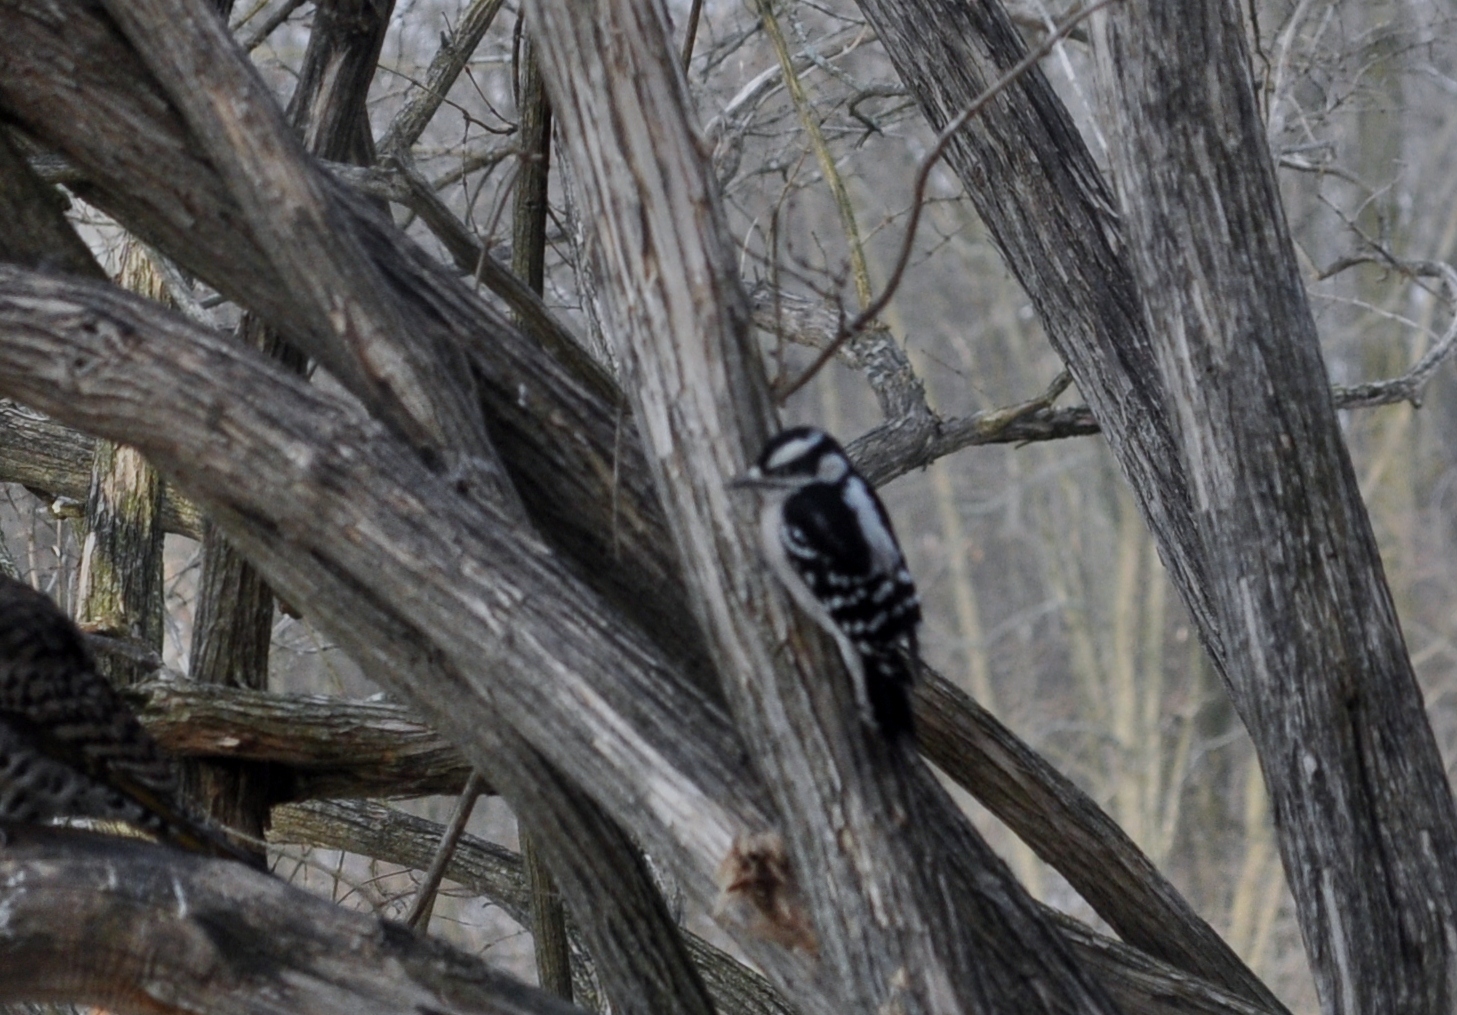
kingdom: Animalia
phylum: Chordata
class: Aves
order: Piciformes
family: Picidae
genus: Dryobates
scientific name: Dryobates pubescens
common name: Downy woodpecker
